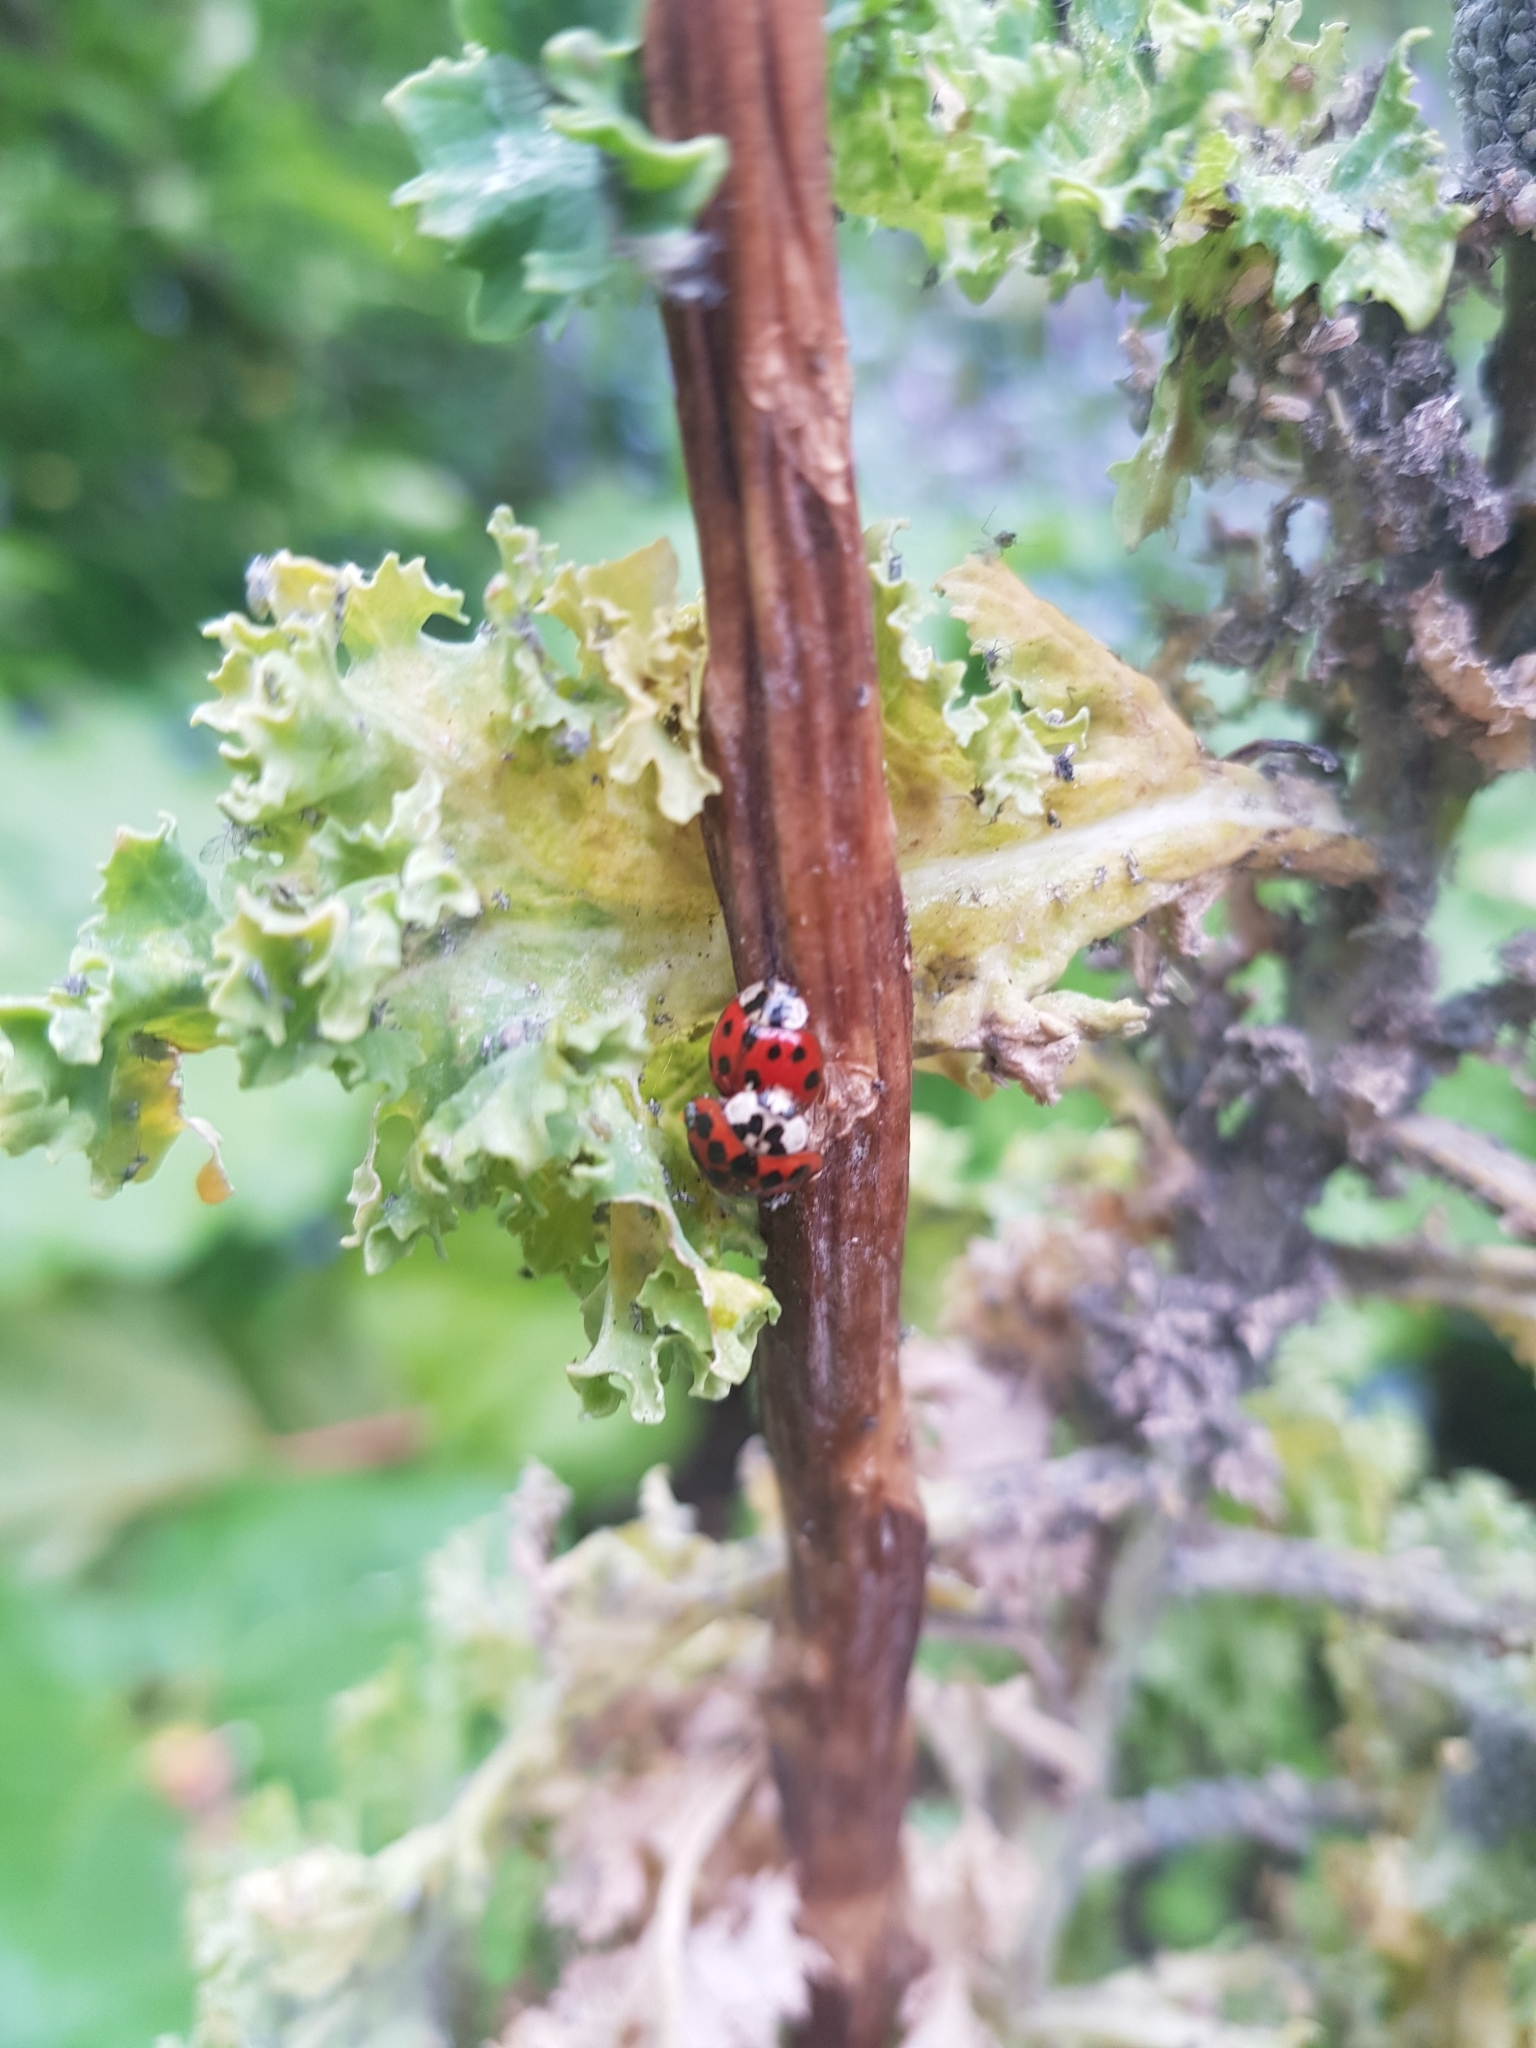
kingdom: Animalia
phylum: Arthropoda
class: Insecta
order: Coleoptera
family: Coccinellidae
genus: Harmonia
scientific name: Harmonia axyridis
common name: Harlequin ladybird
